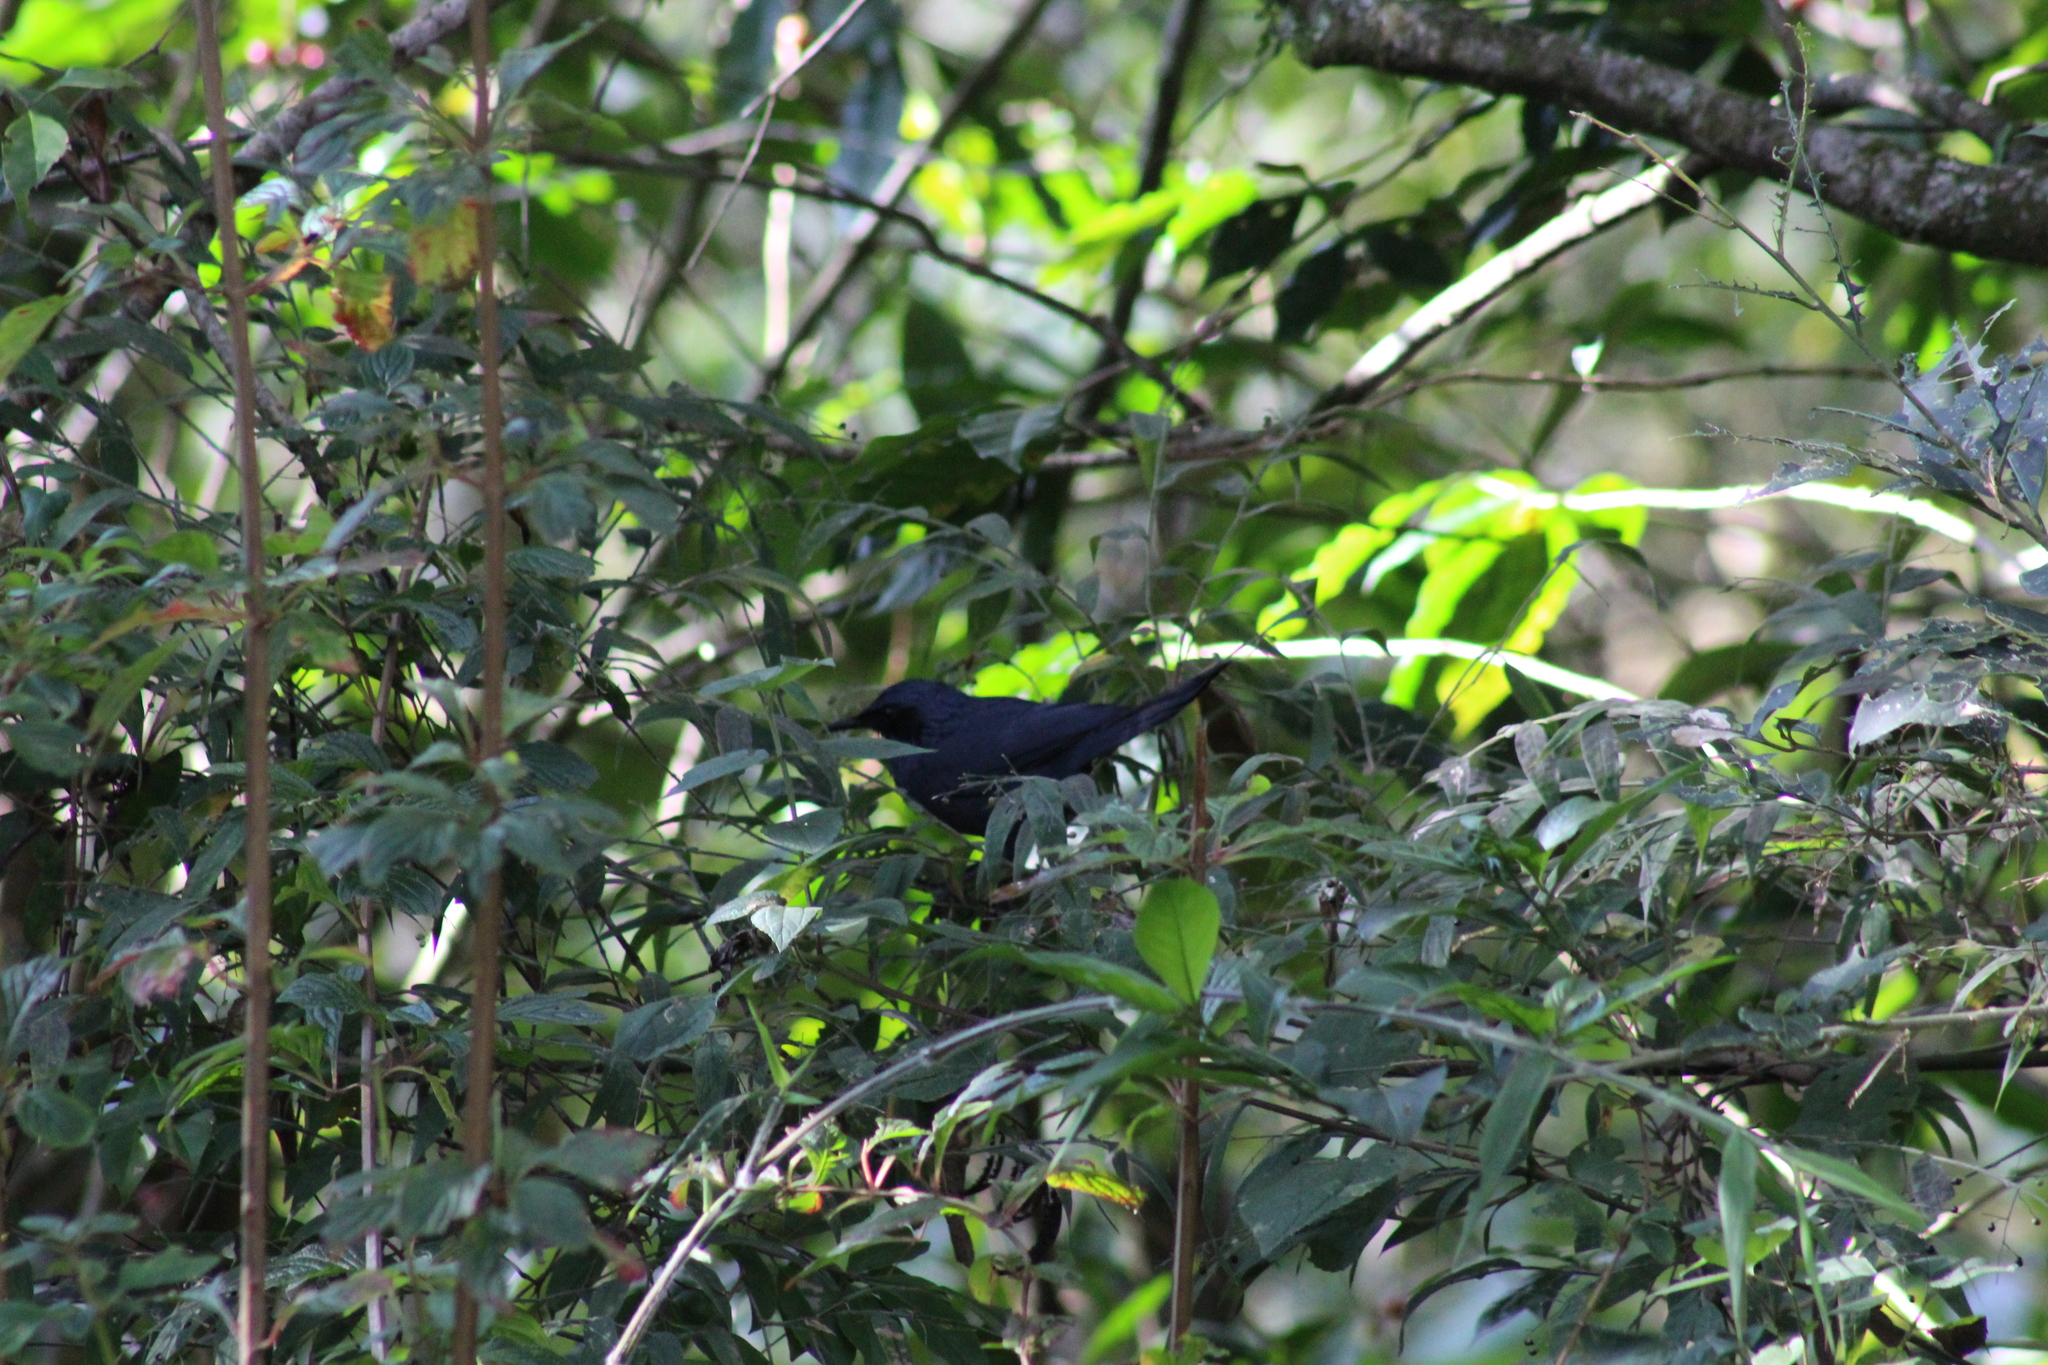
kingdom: Animalia
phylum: Chordata
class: Aves
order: Passeriformes
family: Mimidae
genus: Melanotis
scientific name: Melanotis caerulescens
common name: Blue mockingbird
